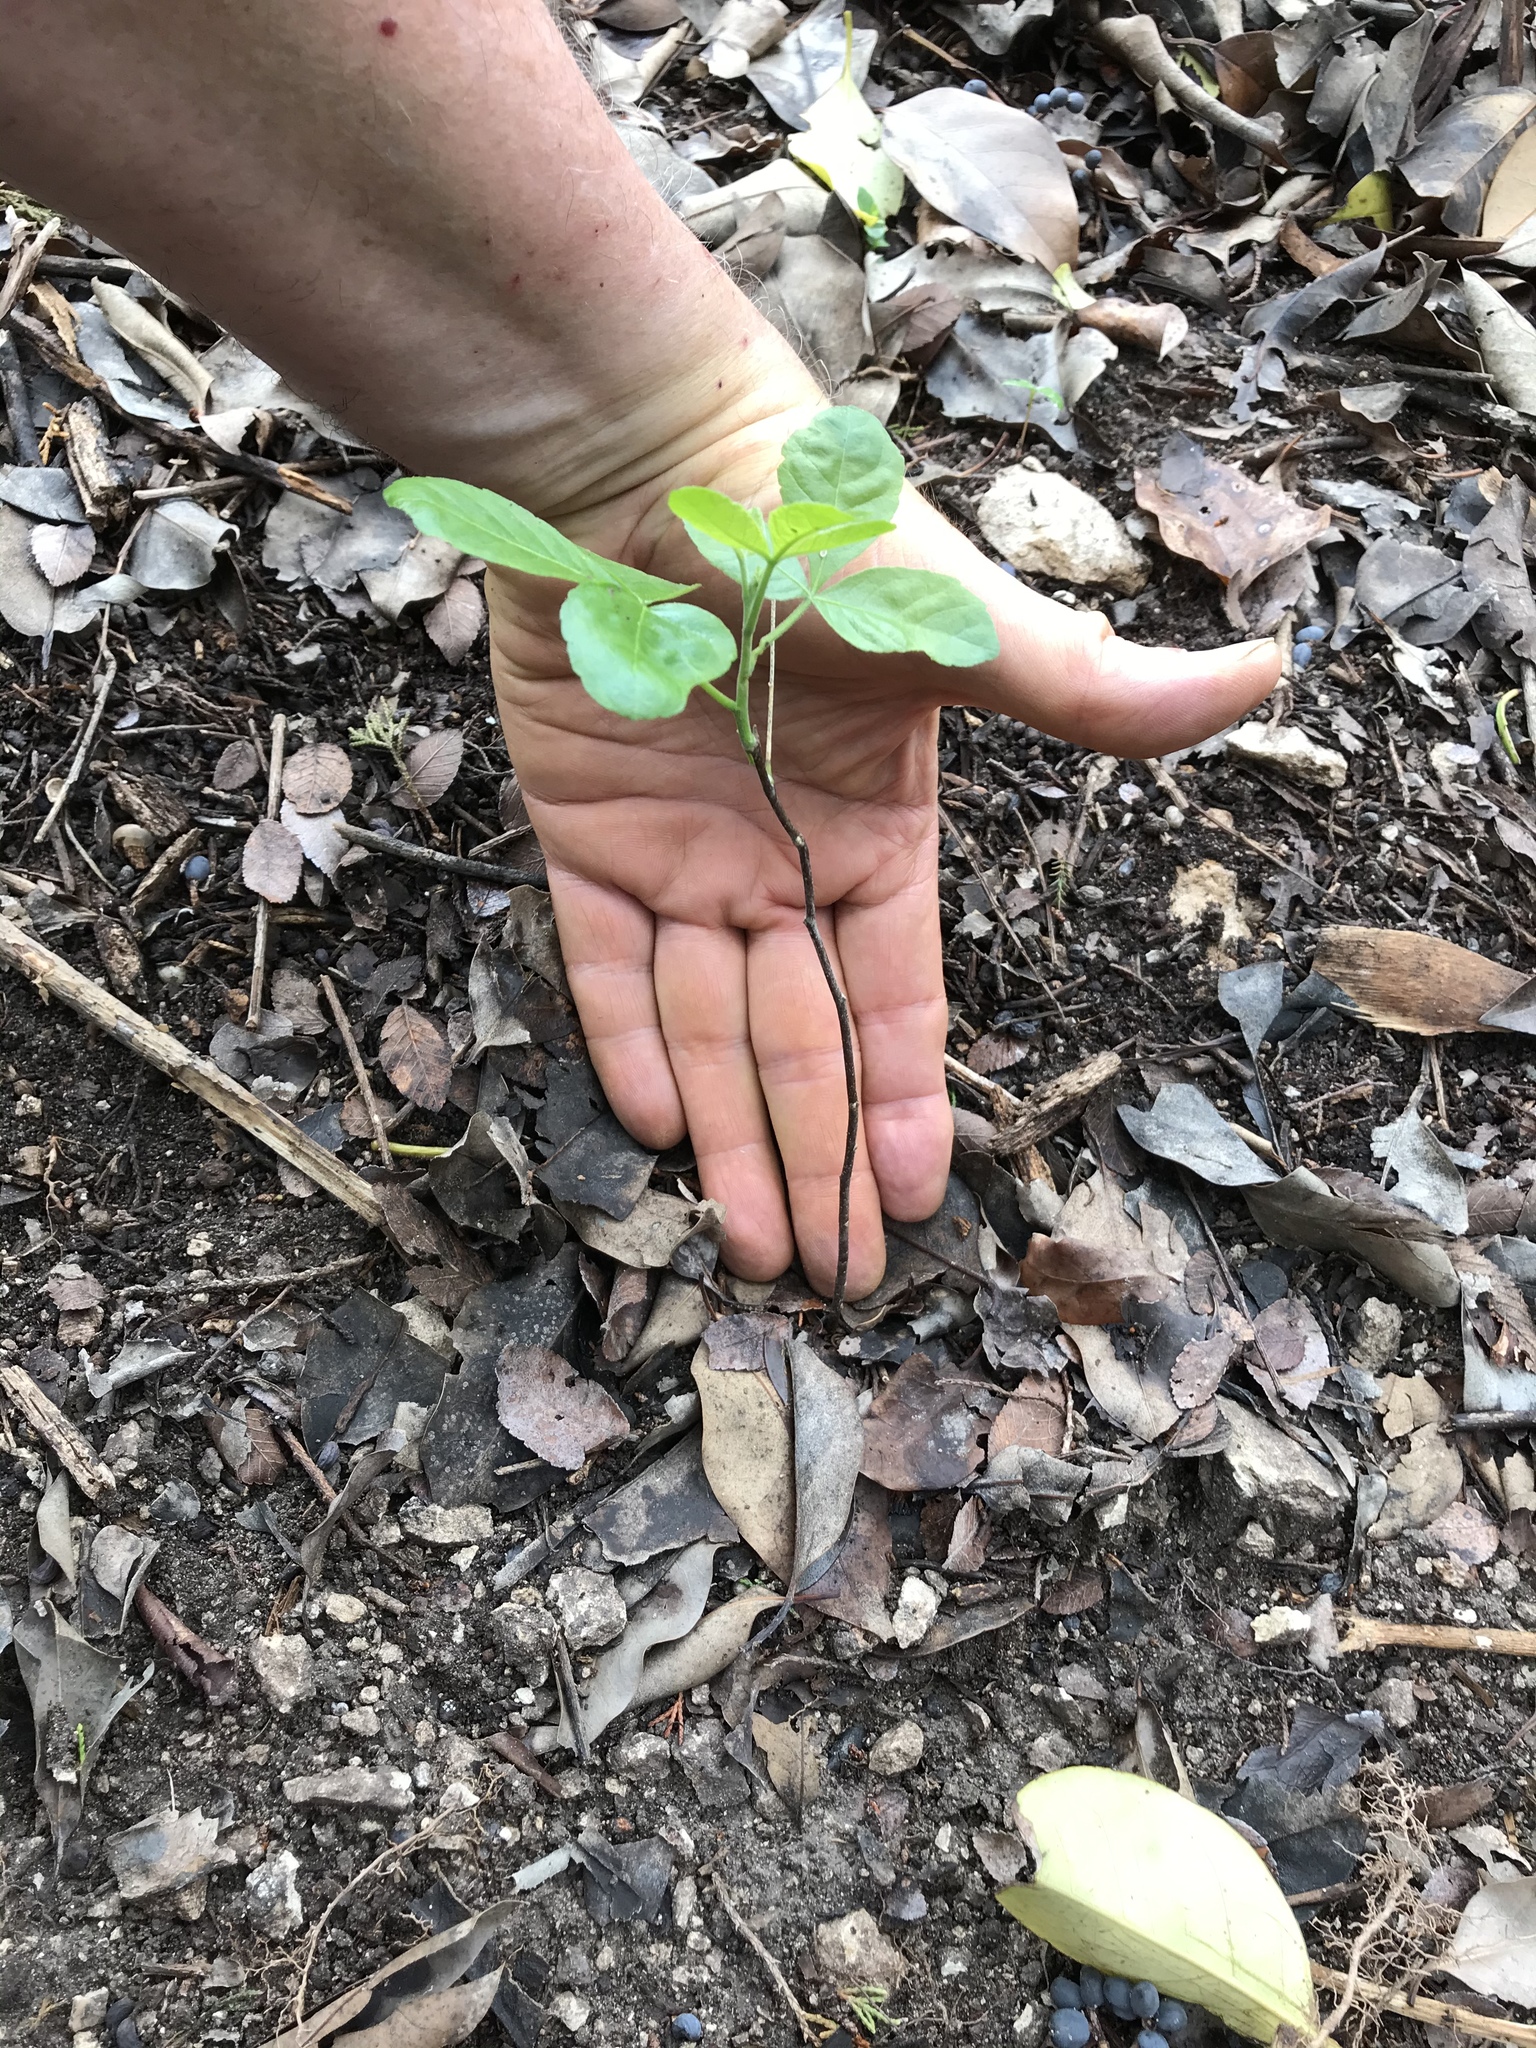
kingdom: Plantae
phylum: Tracheophyta
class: Magnoliopsida
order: Sapindales
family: Rutaceae
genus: Ptelea
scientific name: Ptelea trifoliata
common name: Common hop-tree
